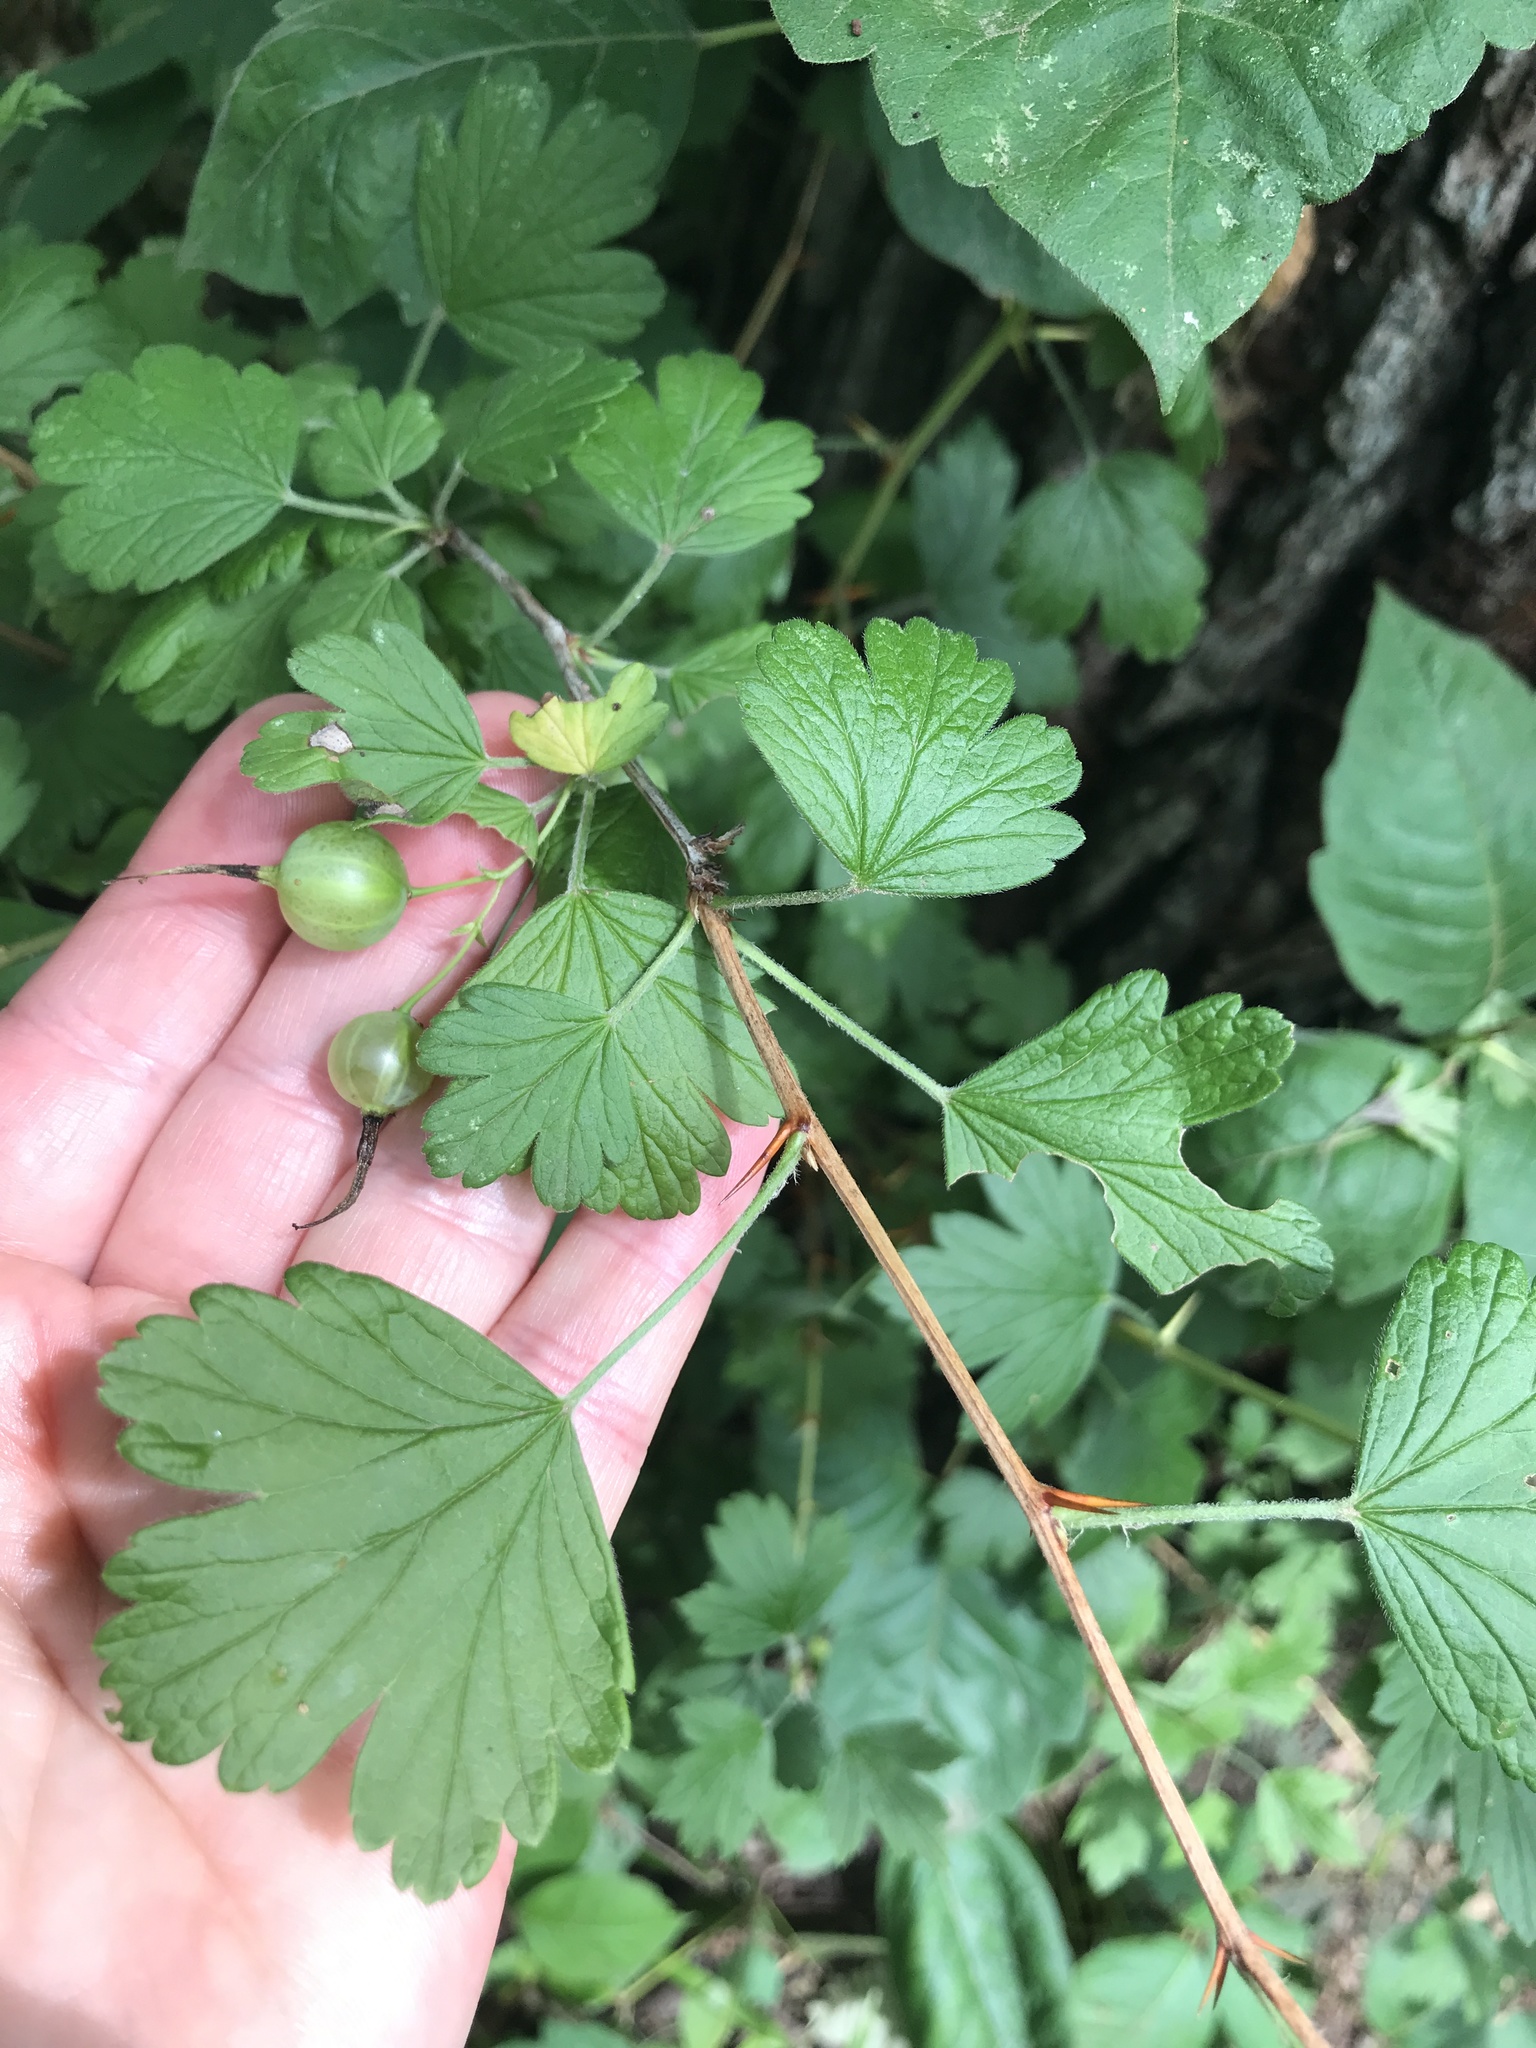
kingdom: Plantae
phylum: Tracheophyta
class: Magnoliopsida
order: Saxifragales
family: Grossulariaceae
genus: Ribes
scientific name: Ribes missouriense
